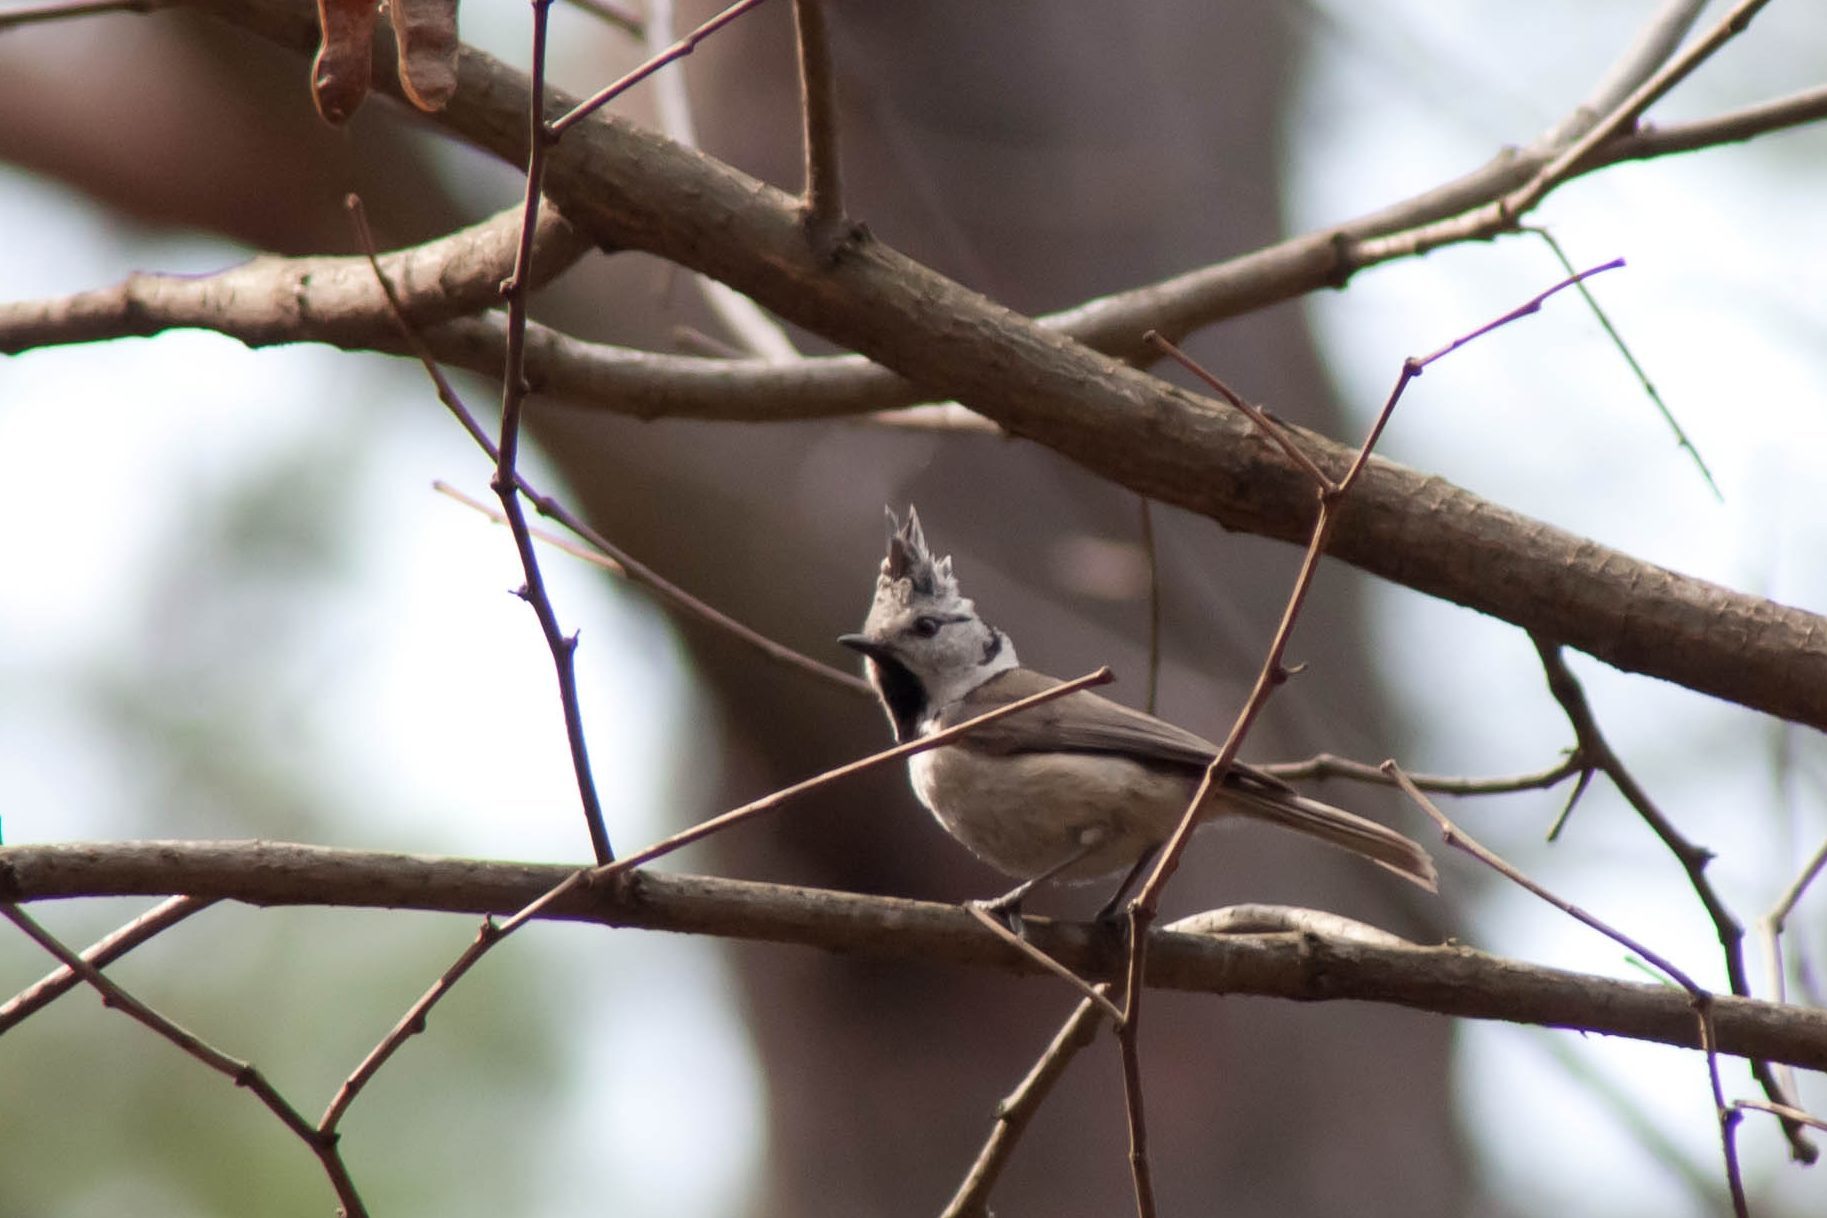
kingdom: Animalia
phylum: Chordata
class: Aves
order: Passeriformes
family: Paridae
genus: Lophophanes
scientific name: Lophophanes cristatus
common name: European crested tit
